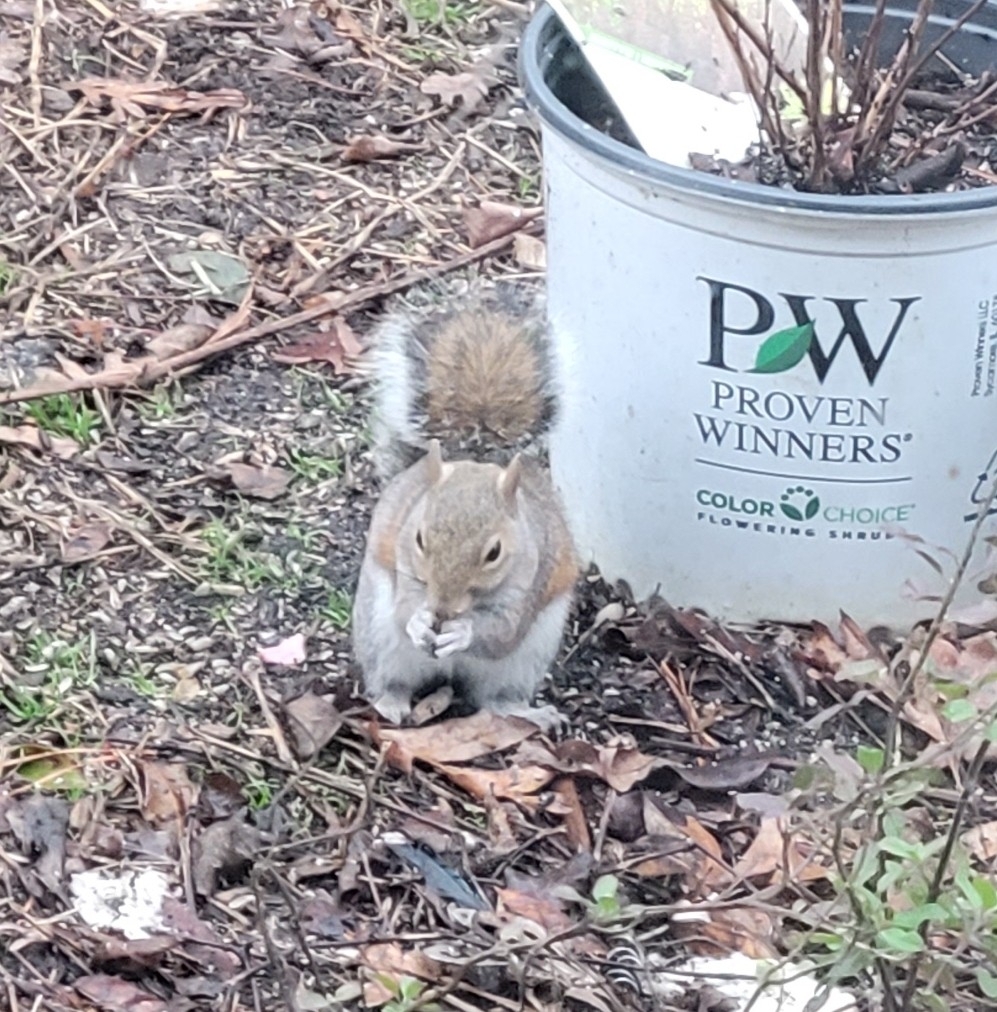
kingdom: Animalia
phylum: Chordata
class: Mammalia
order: Rodentia
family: Sciuridae
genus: Sciurus
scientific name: Sciurus carolinensis
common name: Eastern gray squirrel
